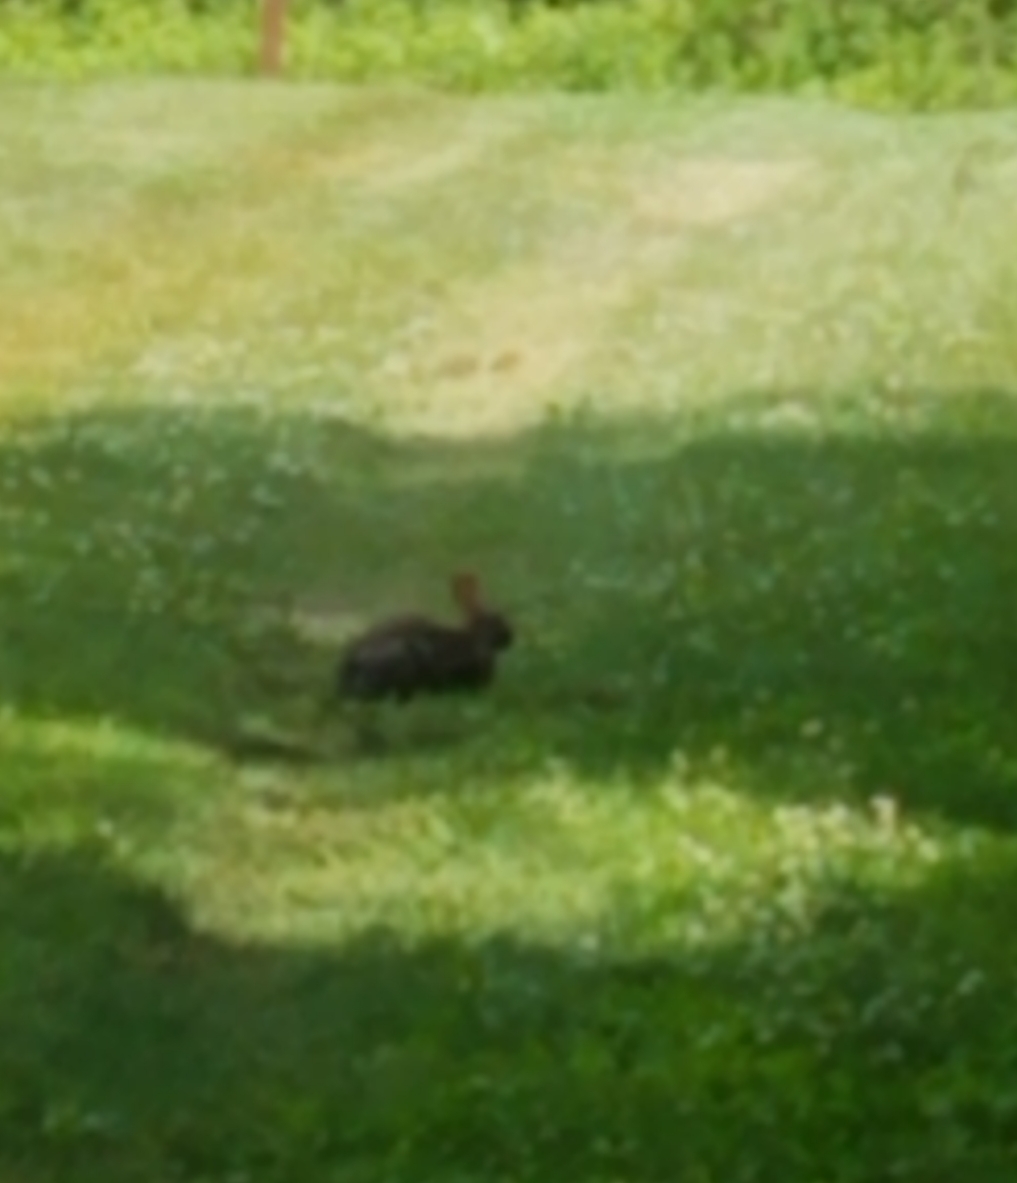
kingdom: Animalia
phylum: Chordata
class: Mammalia
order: Lagomorpha
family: Leporidae
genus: Sylvilagus
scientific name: Sylvilagus floridanus
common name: Eastern cottontail
